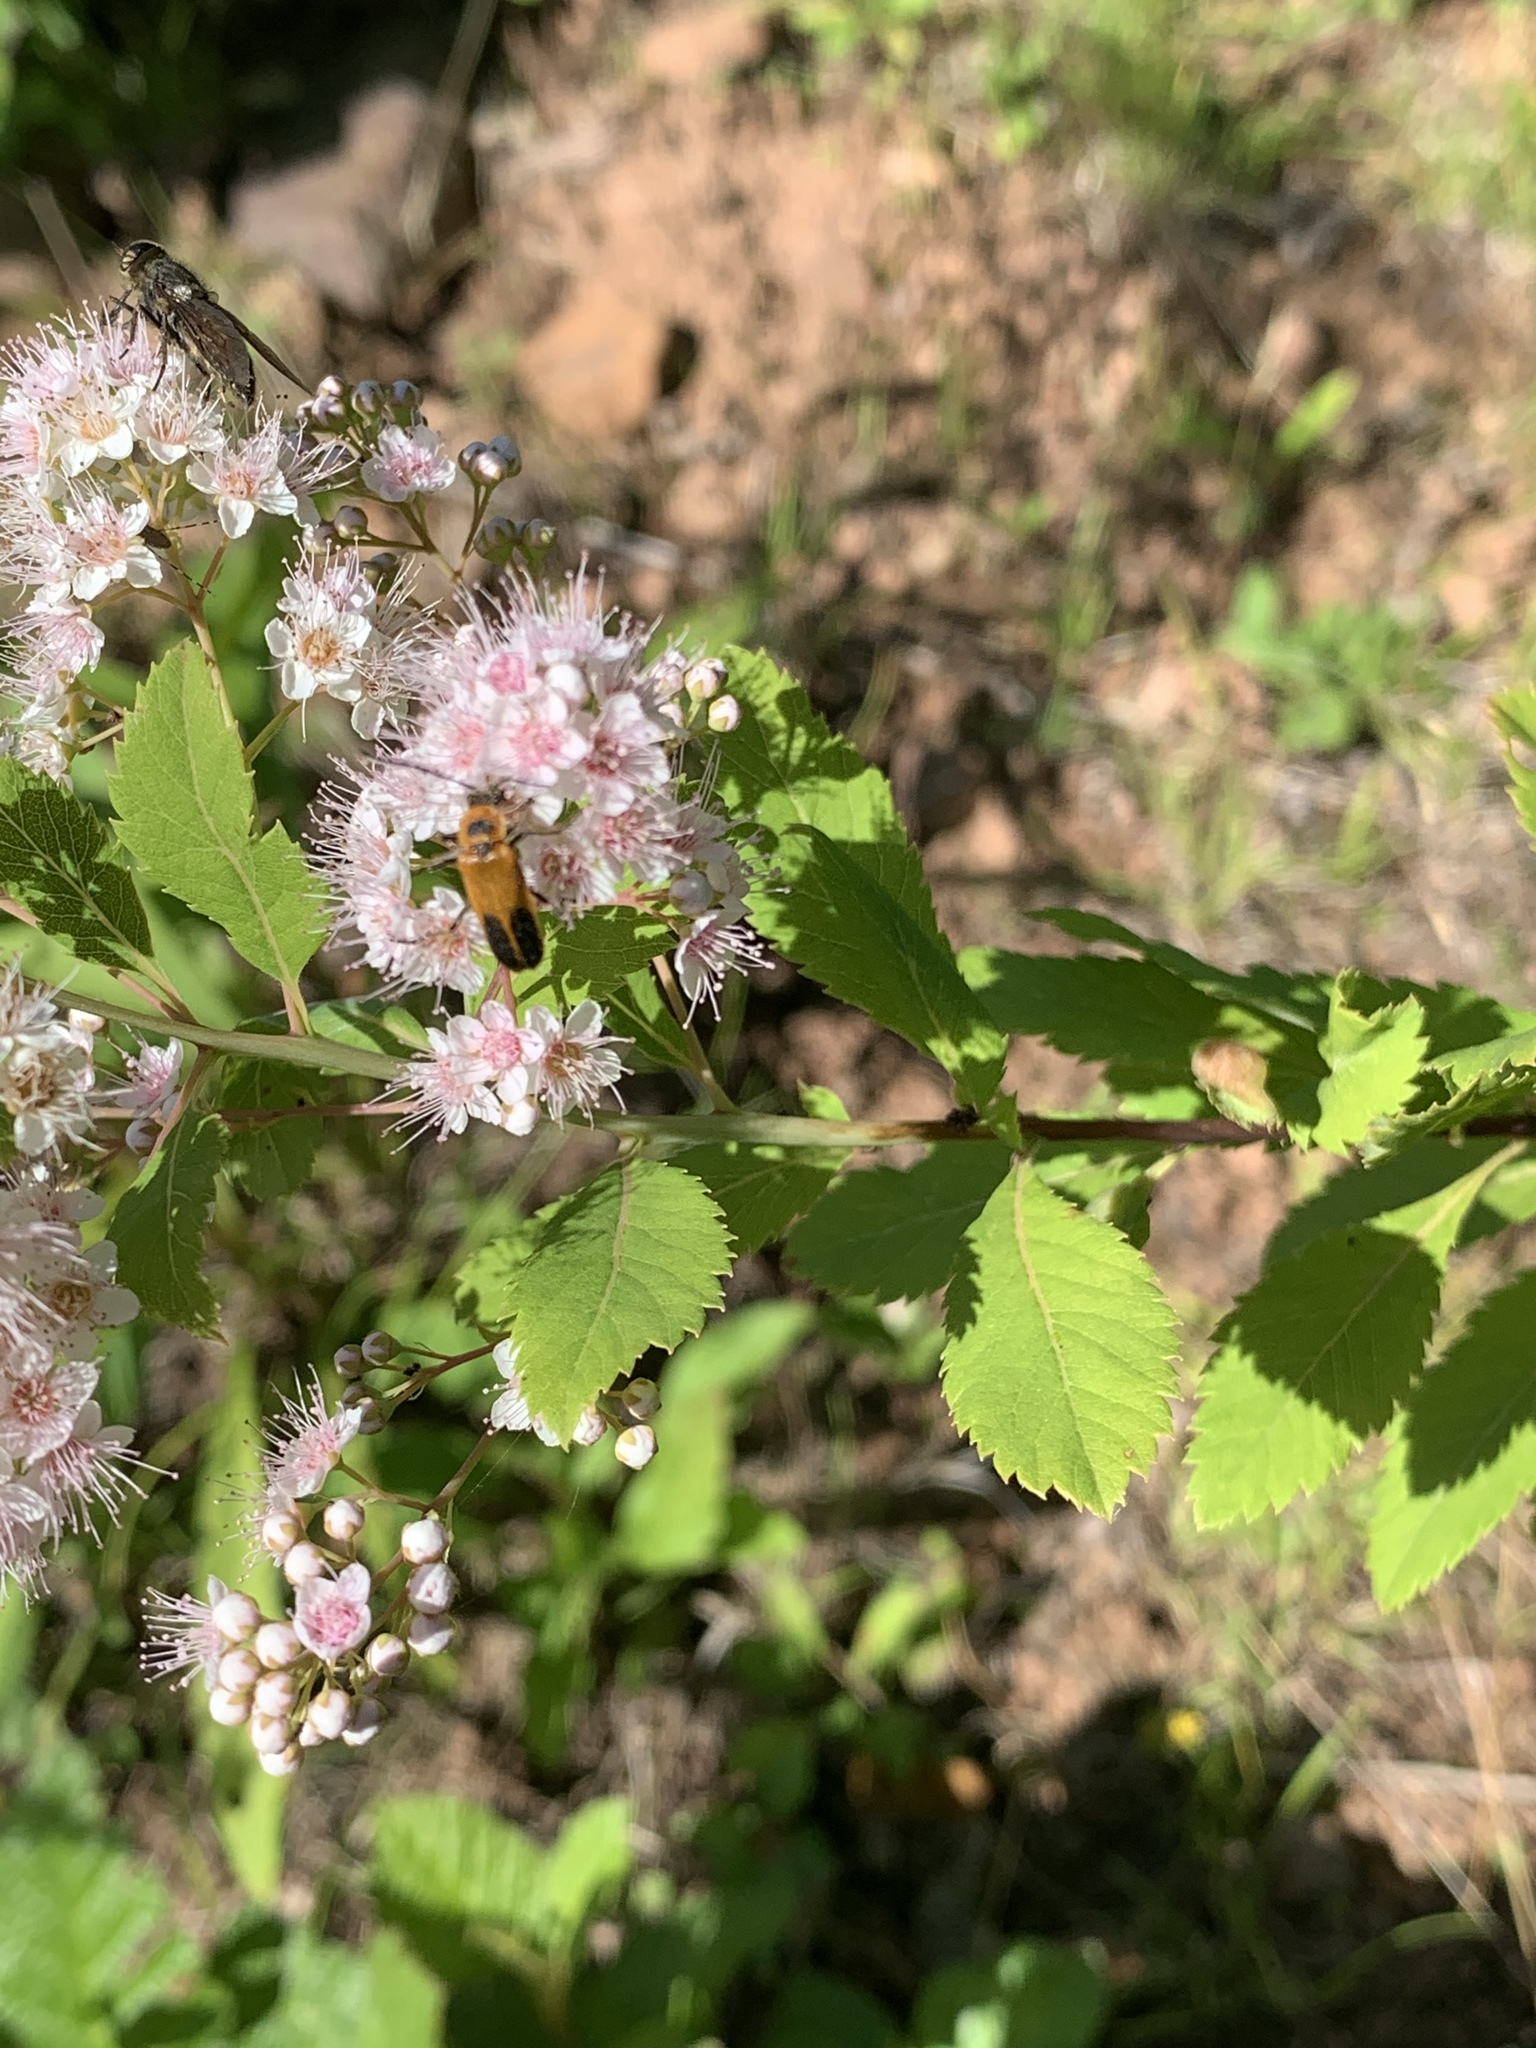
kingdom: Animalia
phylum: Arthropoda
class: Insecta
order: Coleoptera
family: Cantharidae
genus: Chauliognathus
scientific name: Chauliognathus pensylvanicus
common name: Goldenrod soldier beetle
